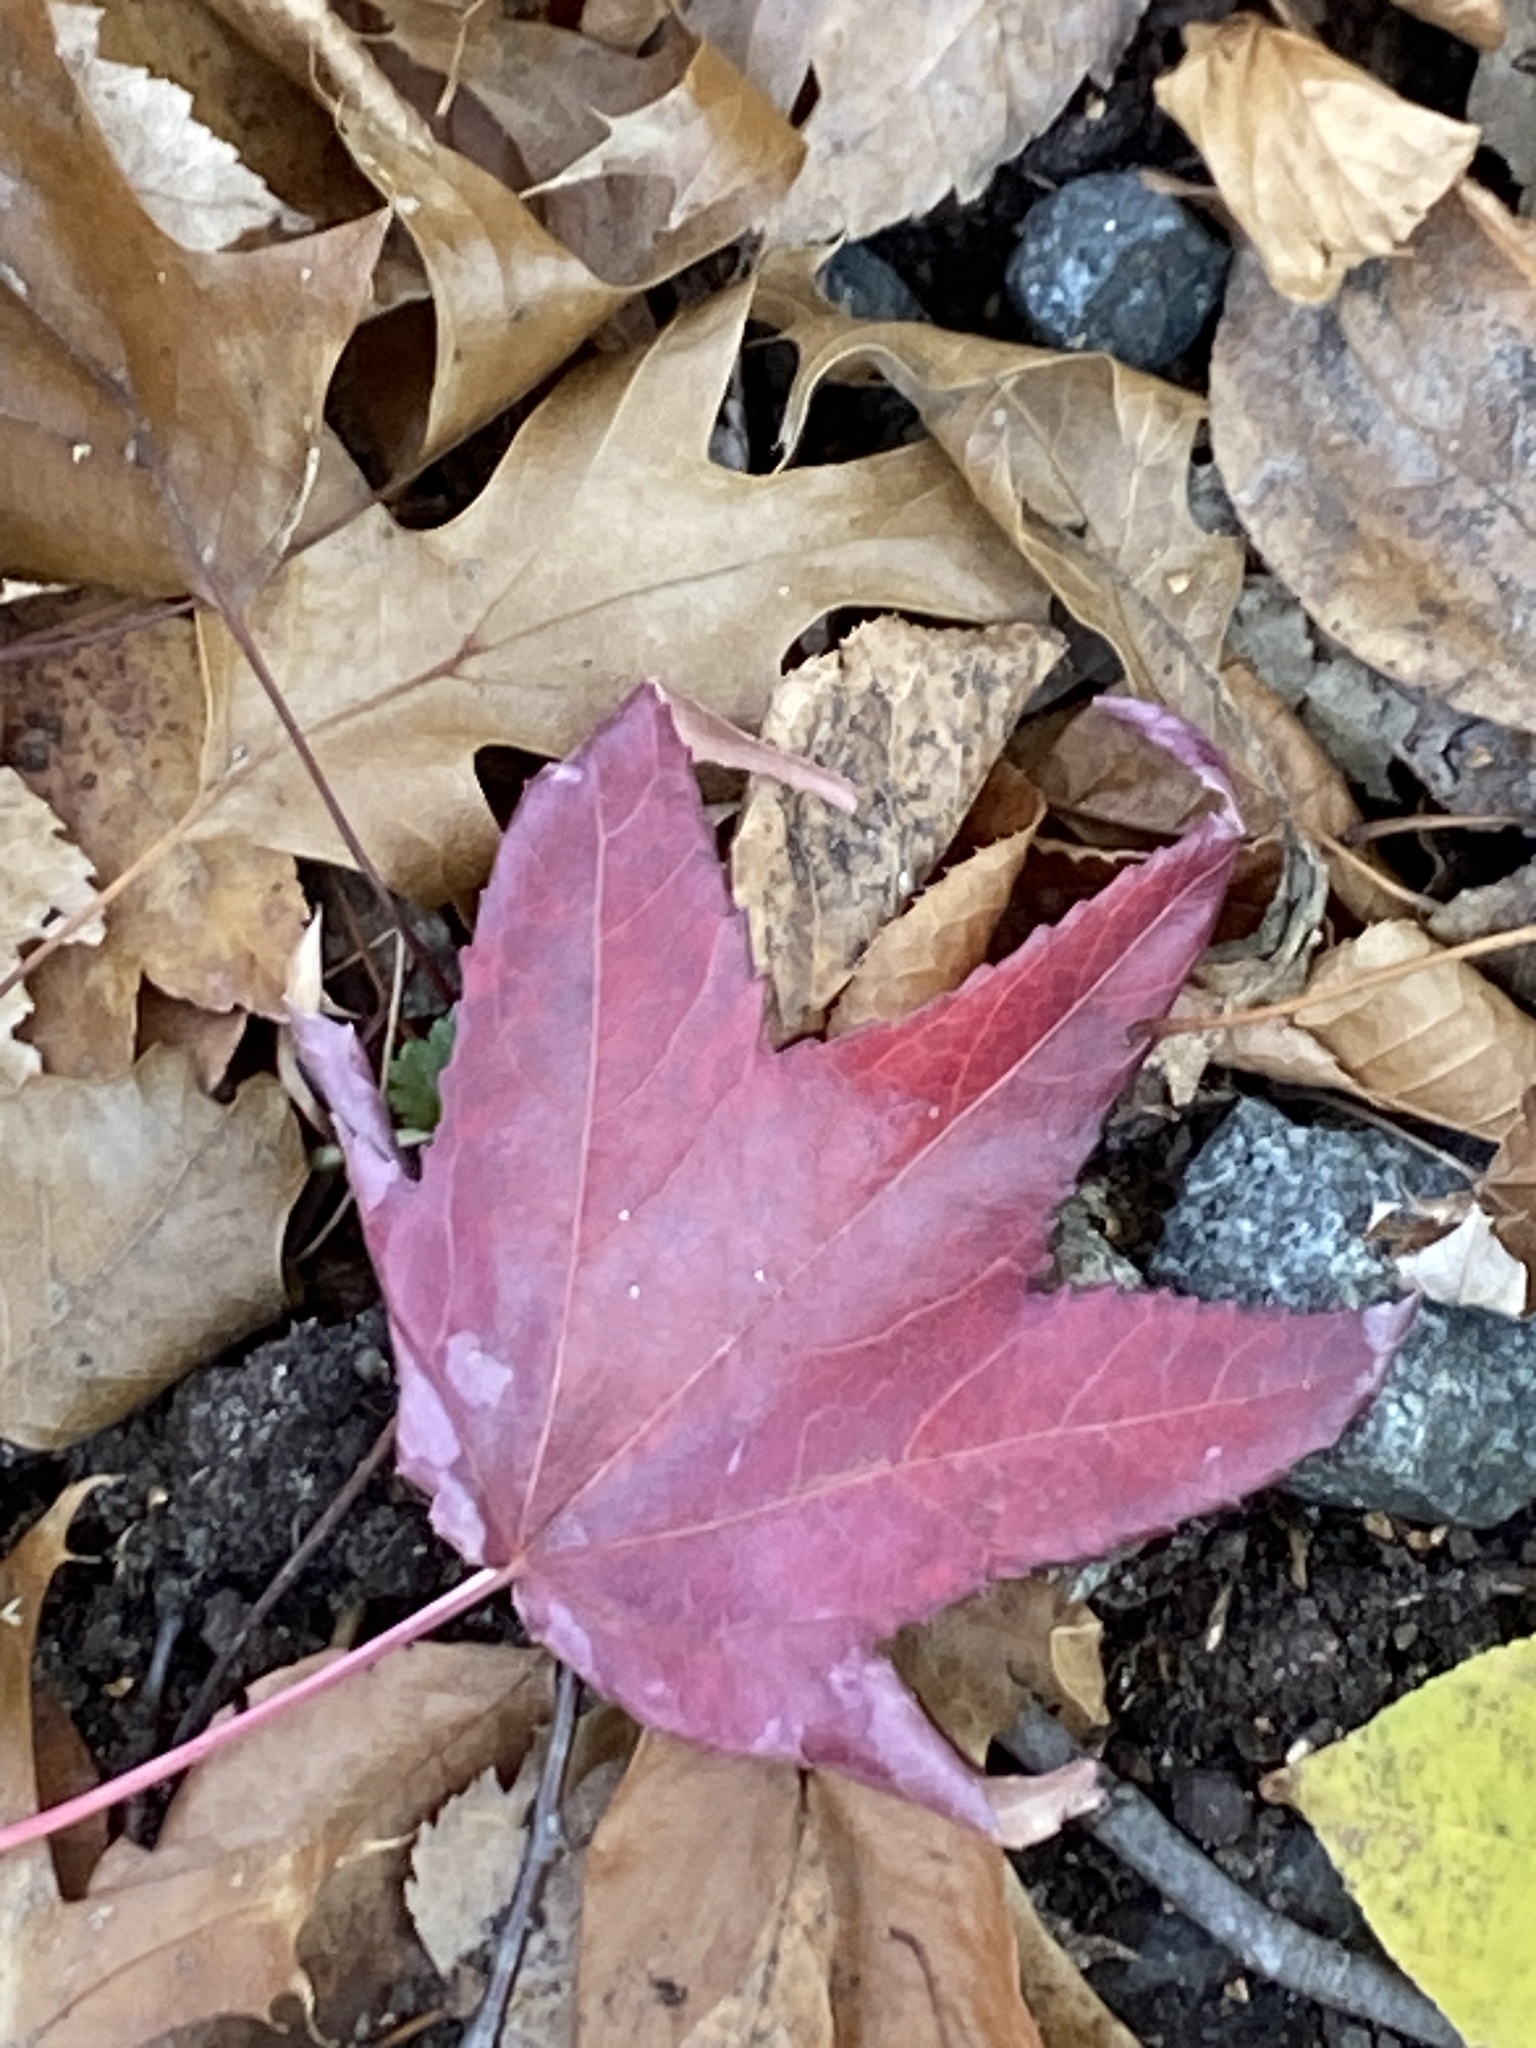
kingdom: Plantae
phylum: Tracheophyta
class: Magnoliopsida
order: Saxifragales
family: Altingiaceae
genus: Liquidambar
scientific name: Liquidambar styraciflua
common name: Sweet gum
